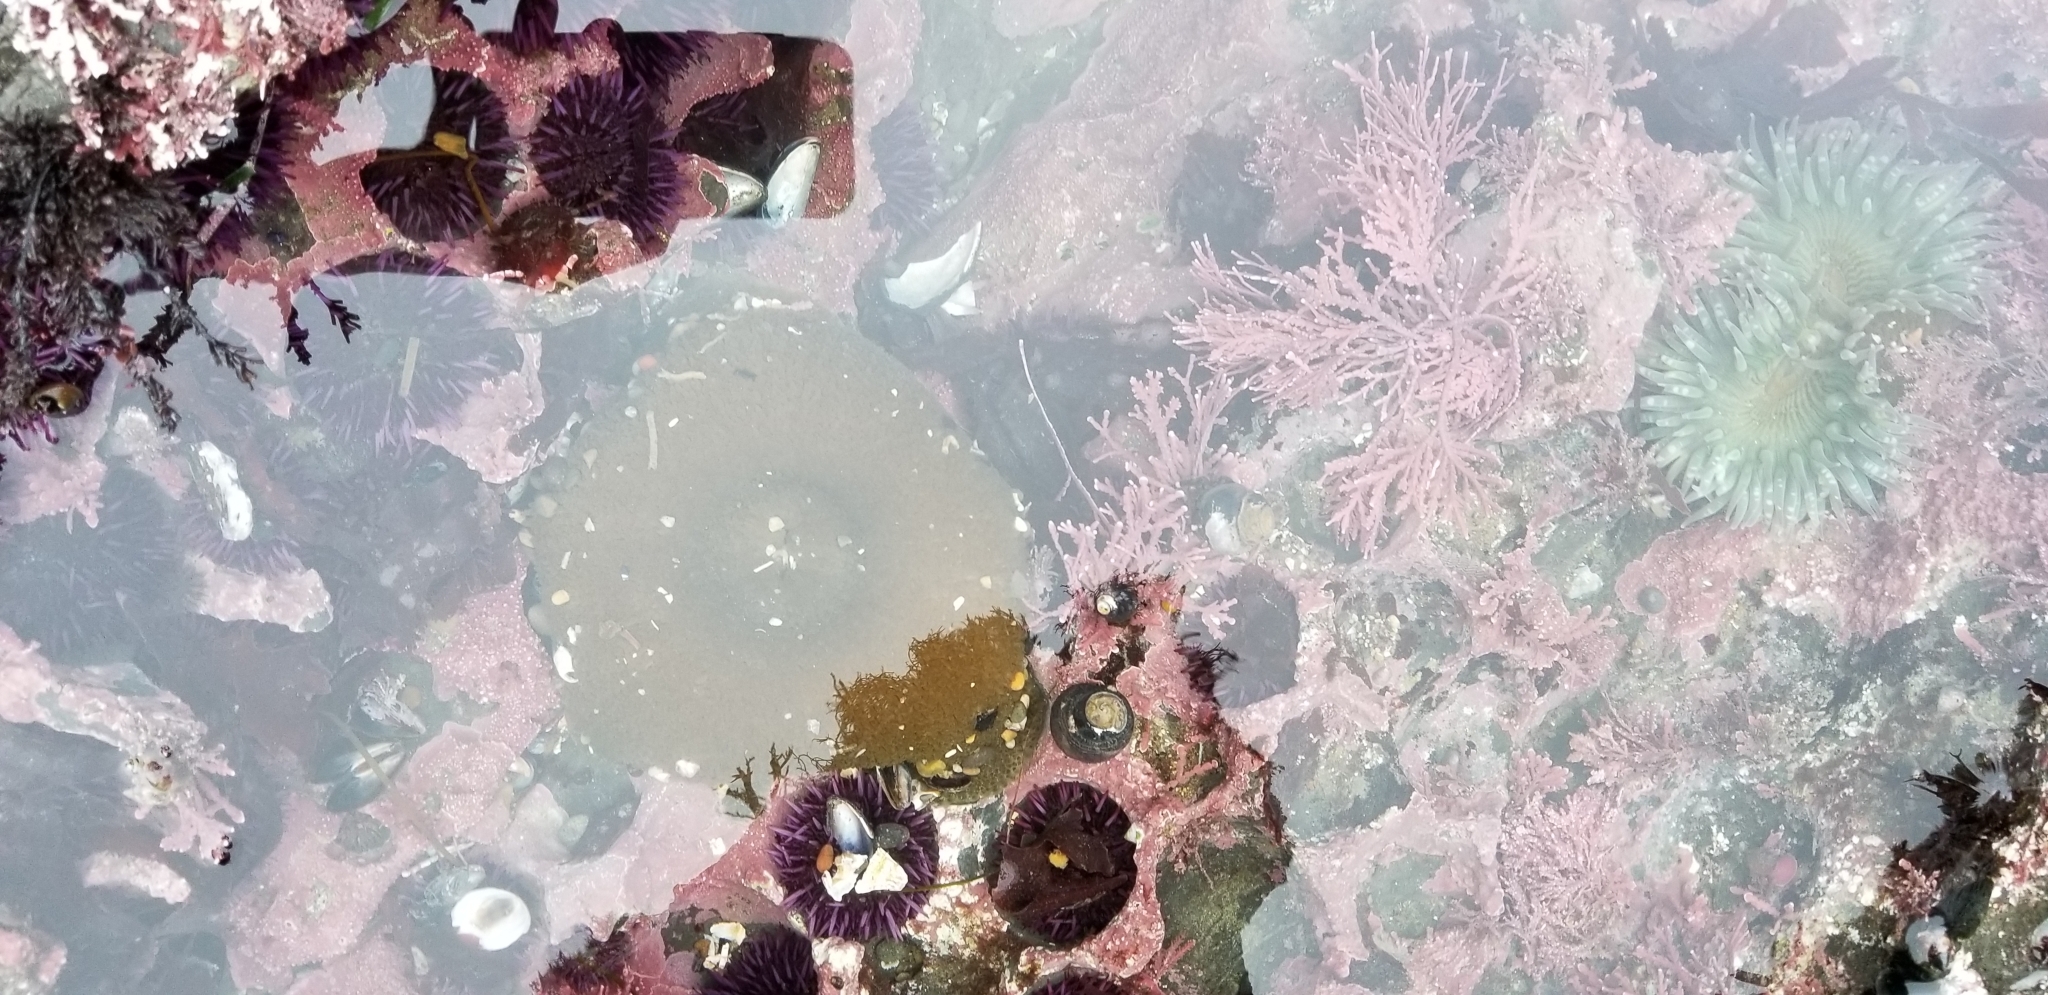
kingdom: Animalia
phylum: Cnidaria
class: Anthozoa
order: Actiniaria
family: Actiniidae
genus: Anthopleura
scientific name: Anthopleura xanthogrammica
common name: Giant green anemone
